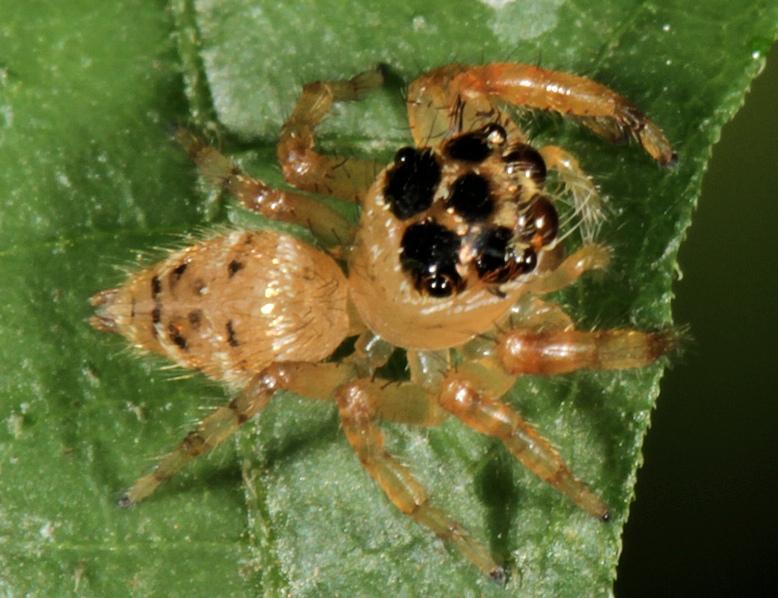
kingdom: Animalia
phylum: Arthropoda
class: Arachnida
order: Araneae
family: Salticidae
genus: Thyene
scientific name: Thyene natalii
